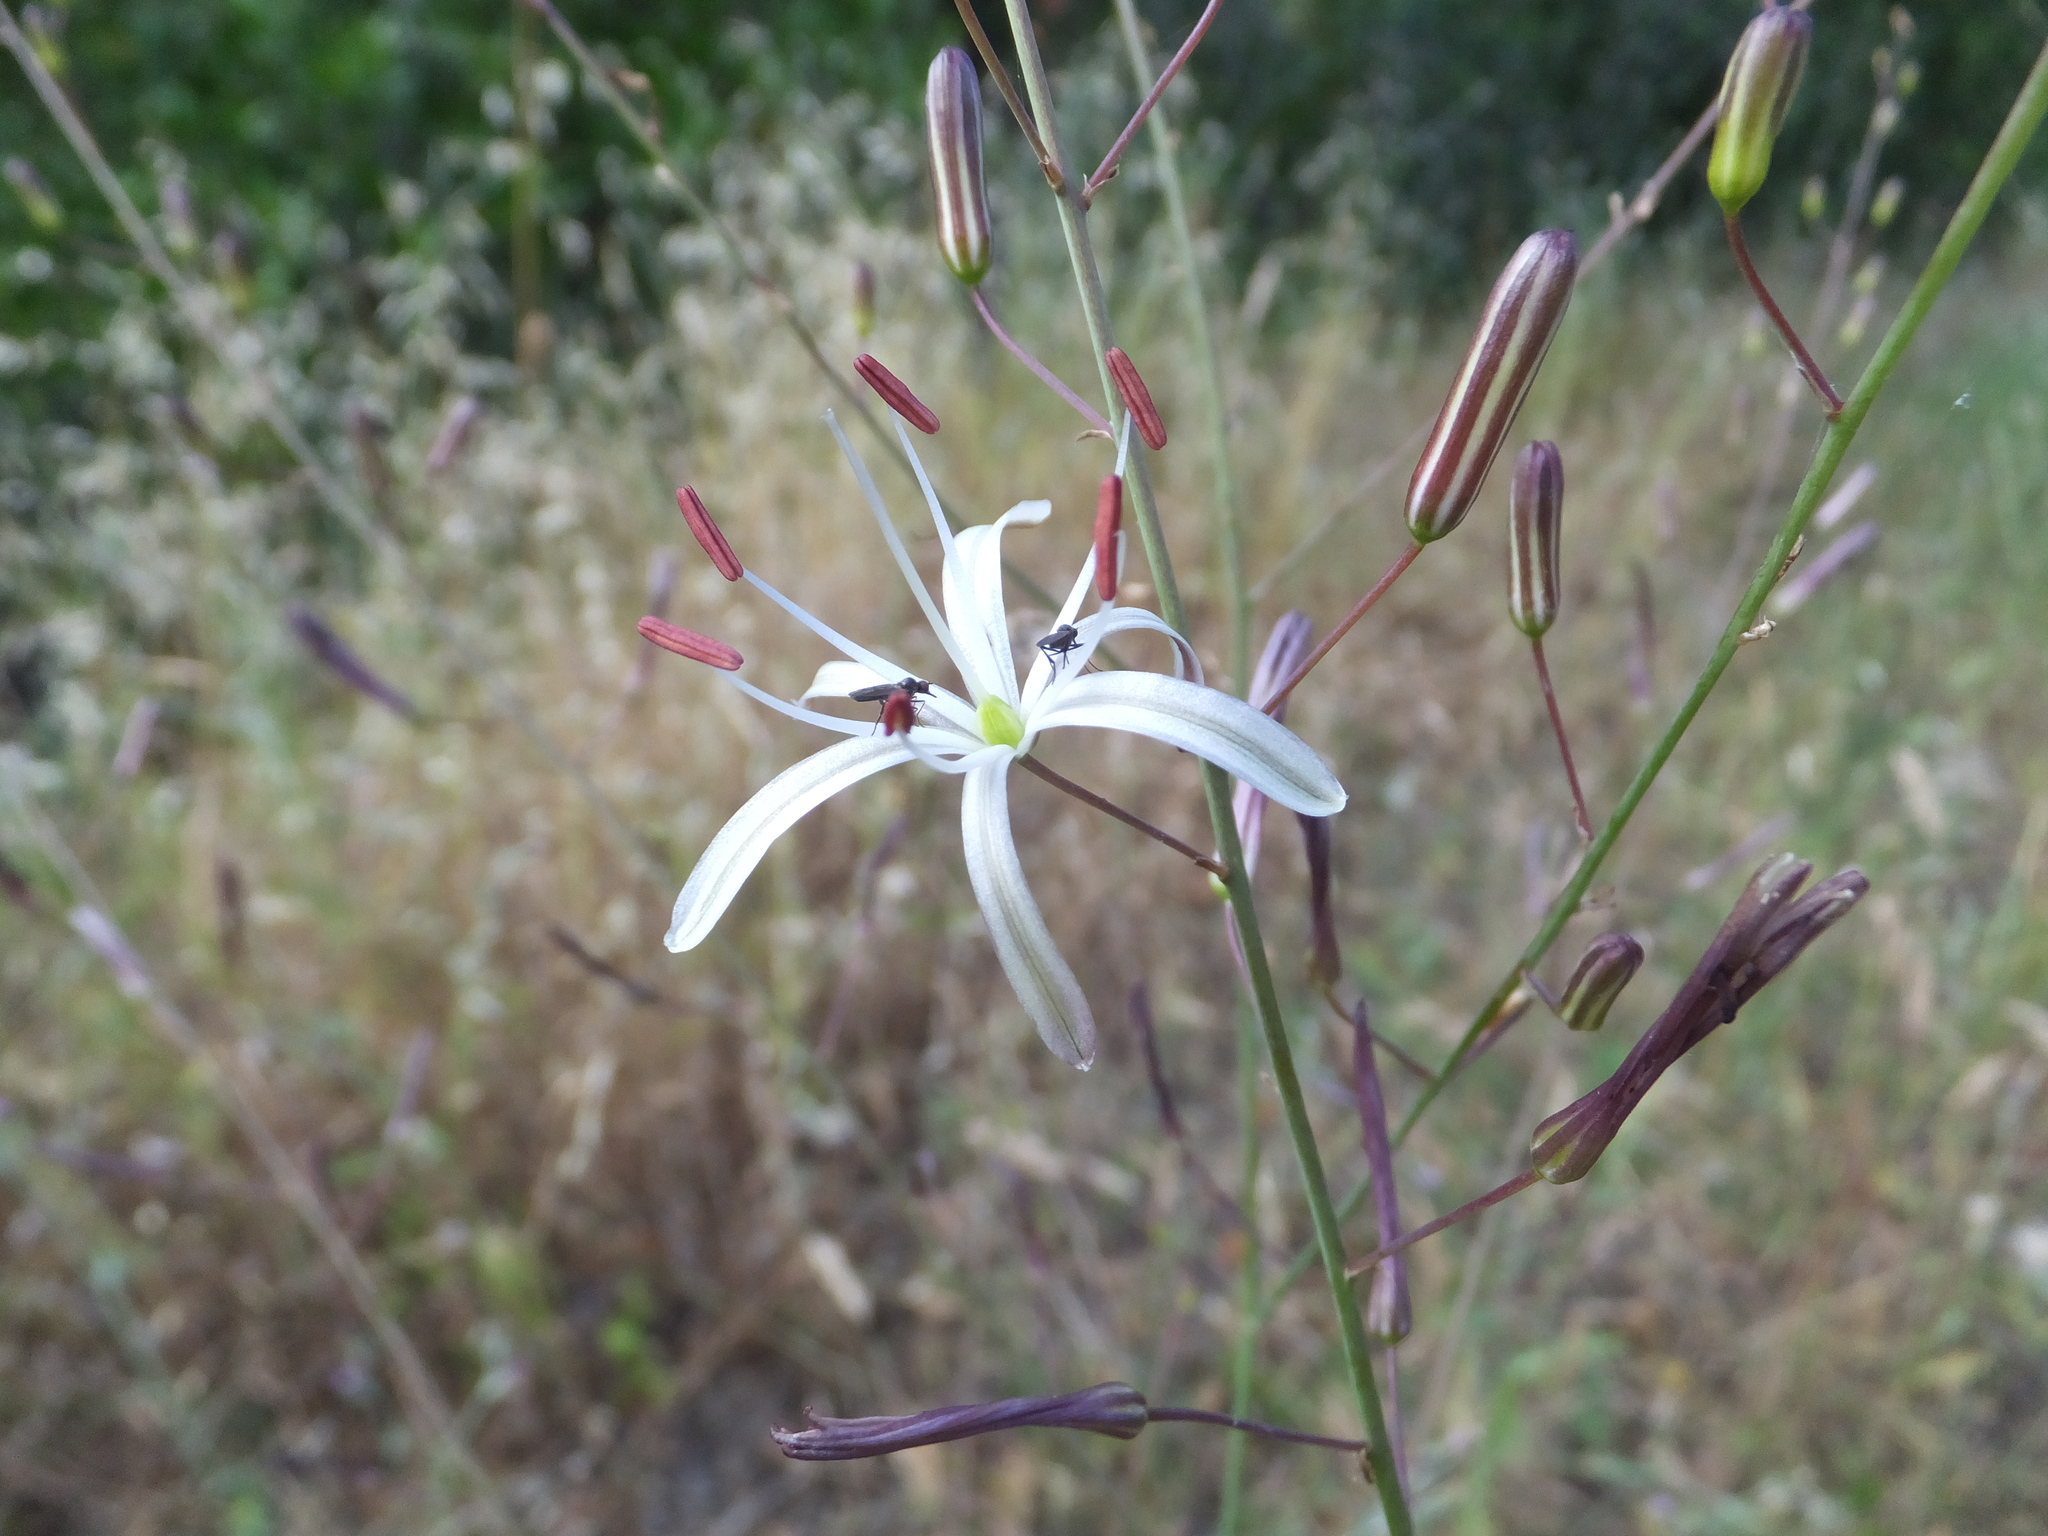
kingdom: Plantae
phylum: Tracheophyta
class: Liliopsida
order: Asparagales
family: Asparagaceae
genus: Chlorogalum
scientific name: Chlorogalum pomeridianum
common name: Amole
